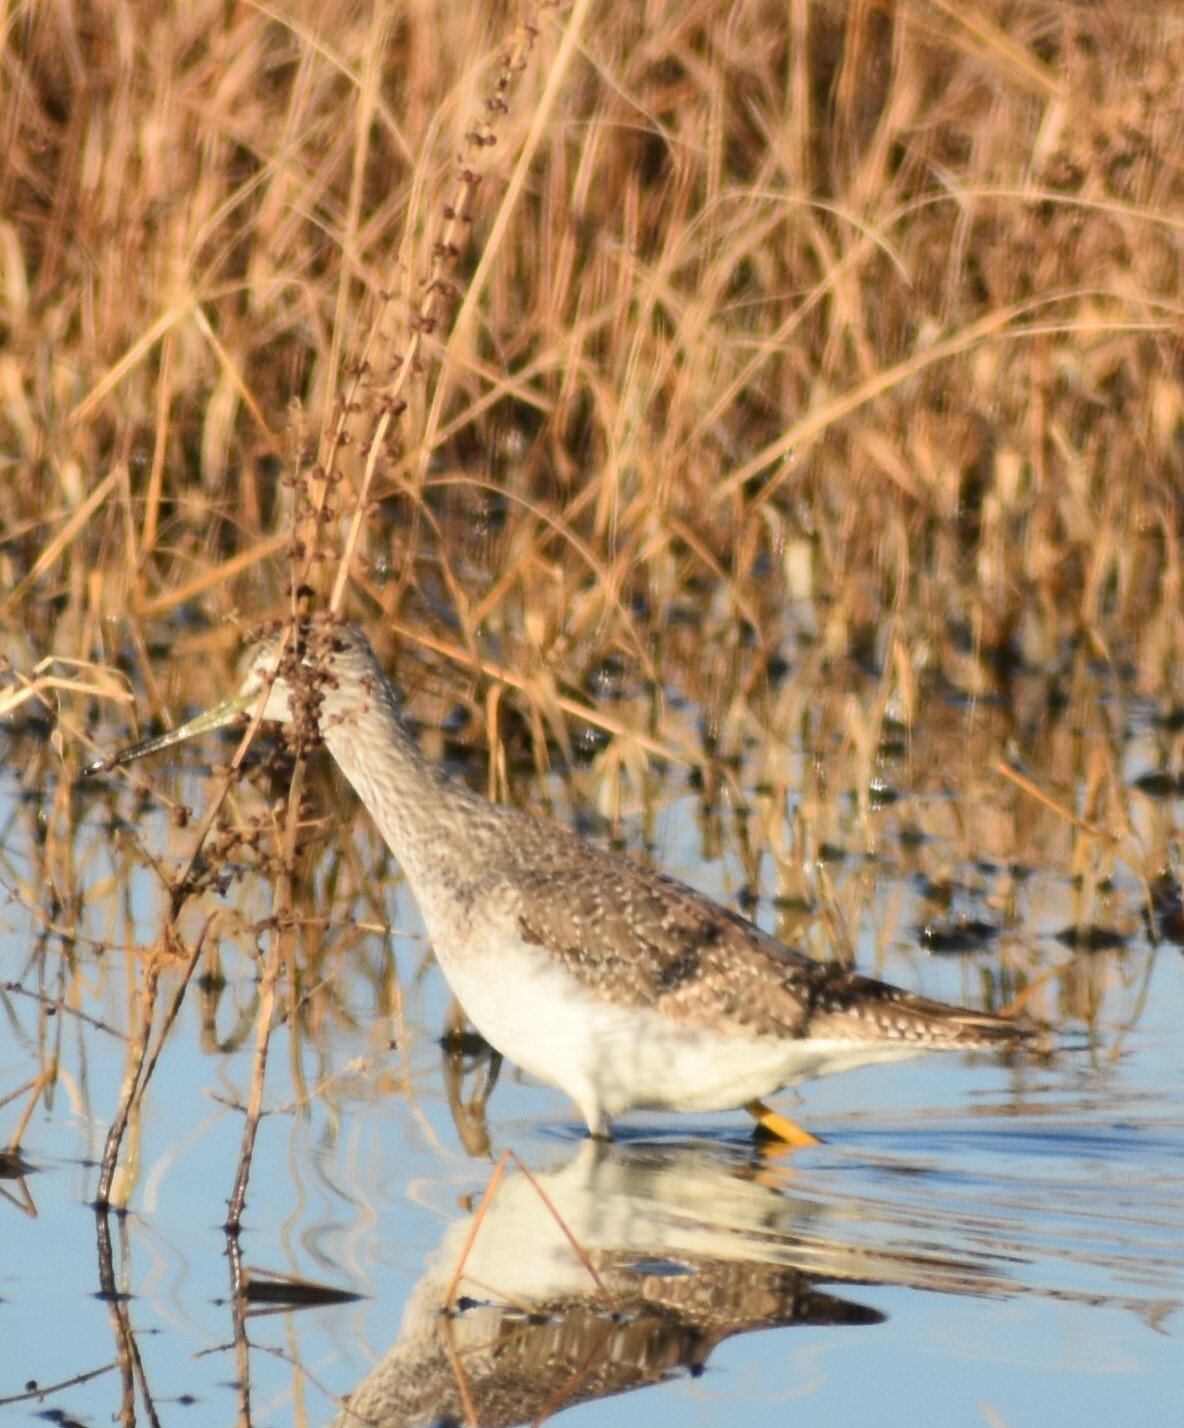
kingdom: Animalia
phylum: Chordata
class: Aves
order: Charadriiformes
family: Scolopacidae
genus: Tringa
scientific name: Tringa melanoleuca
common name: Greater yellowlegs
